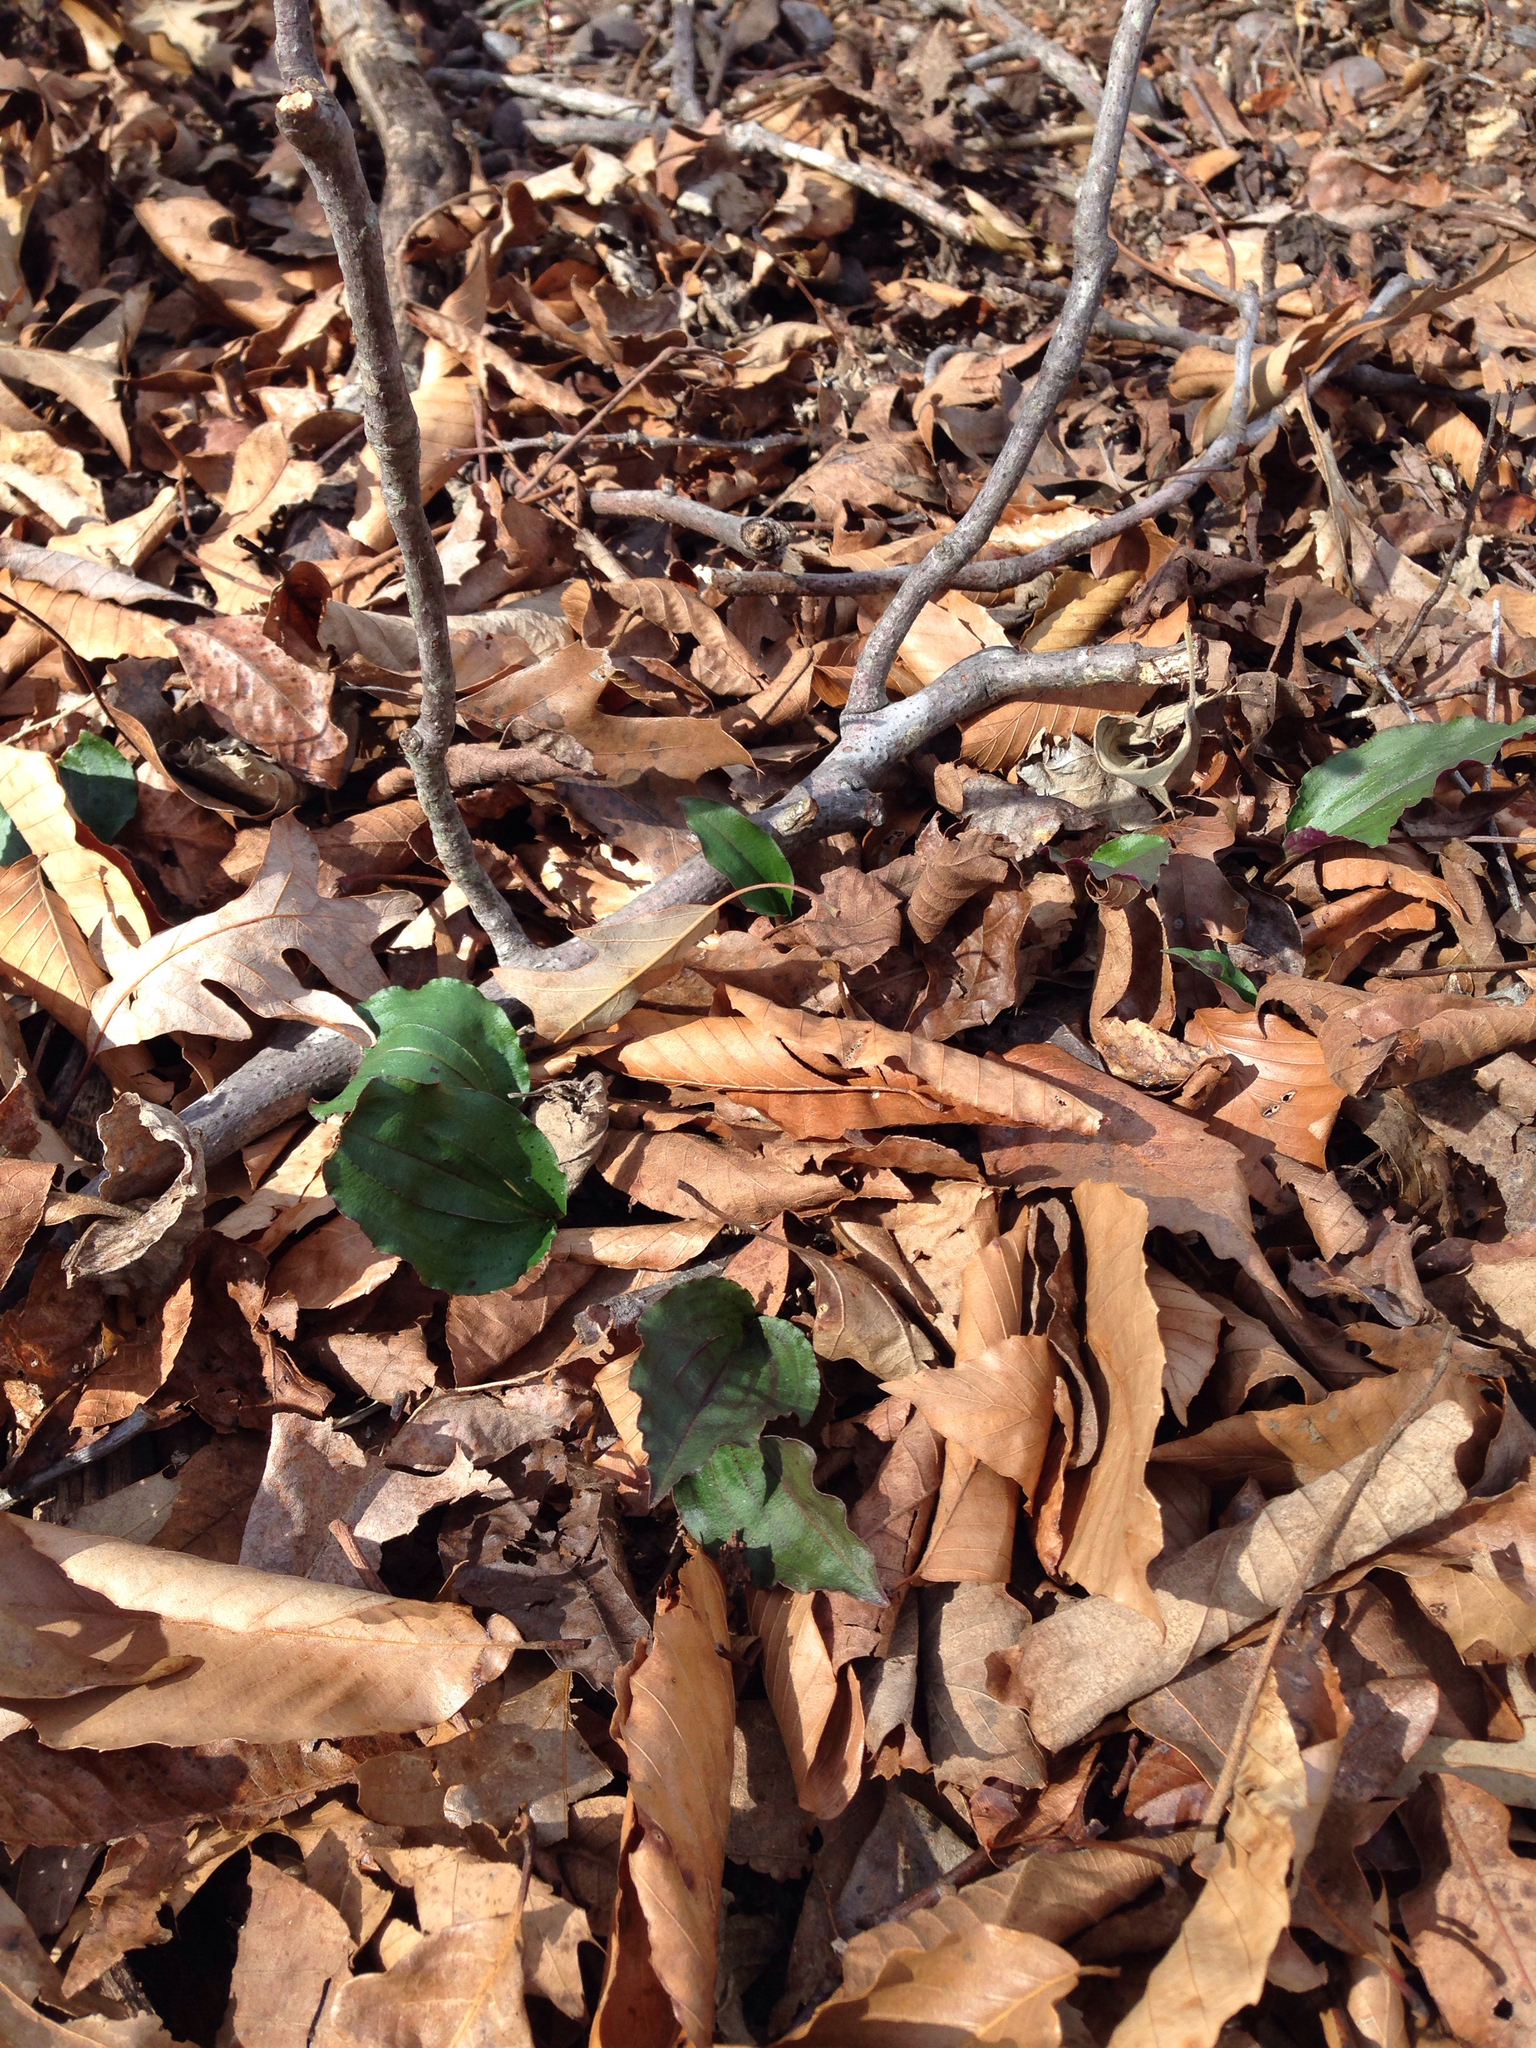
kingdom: Plantae
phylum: Tracheophyta
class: Liliopsida
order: Asparagales
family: Orchidaceae
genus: Tipularia
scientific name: Tipularia discolor
